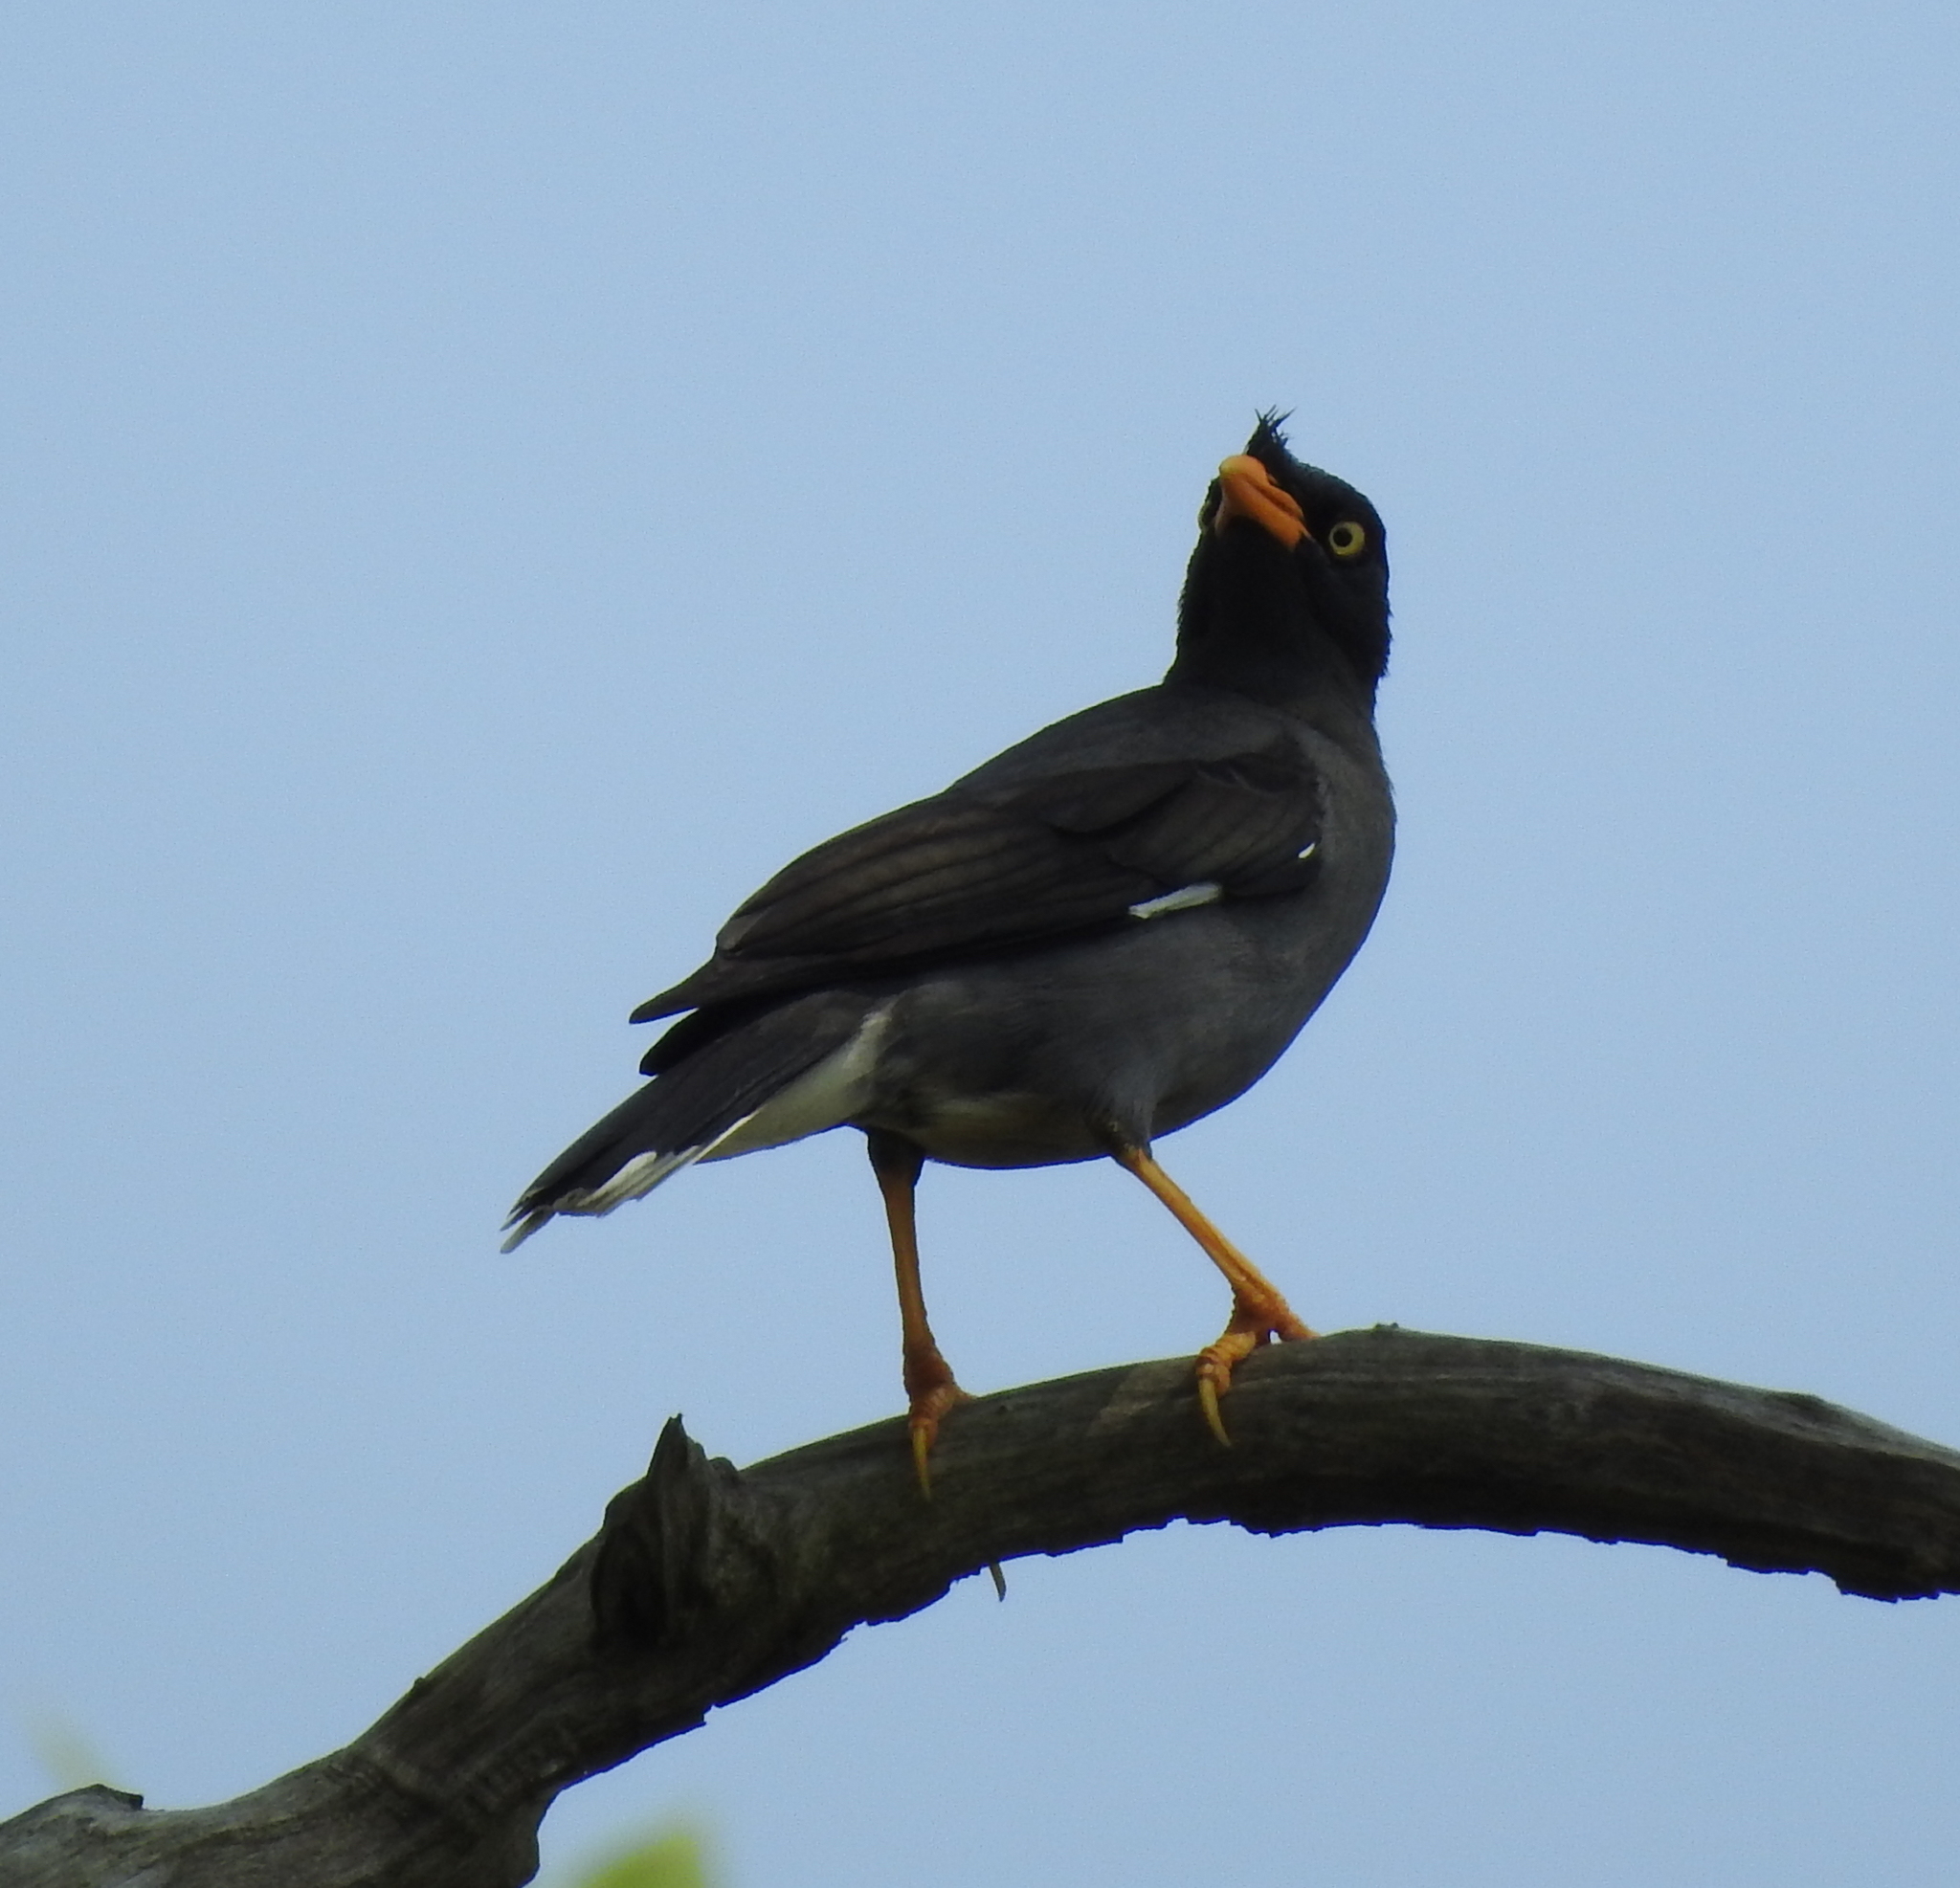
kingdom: Animalia
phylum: Chordata
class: Aves
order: Passeriformes
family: Sturnidae
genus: Acridotheres
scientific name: Acridotheres javanicus
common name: Javan myna
